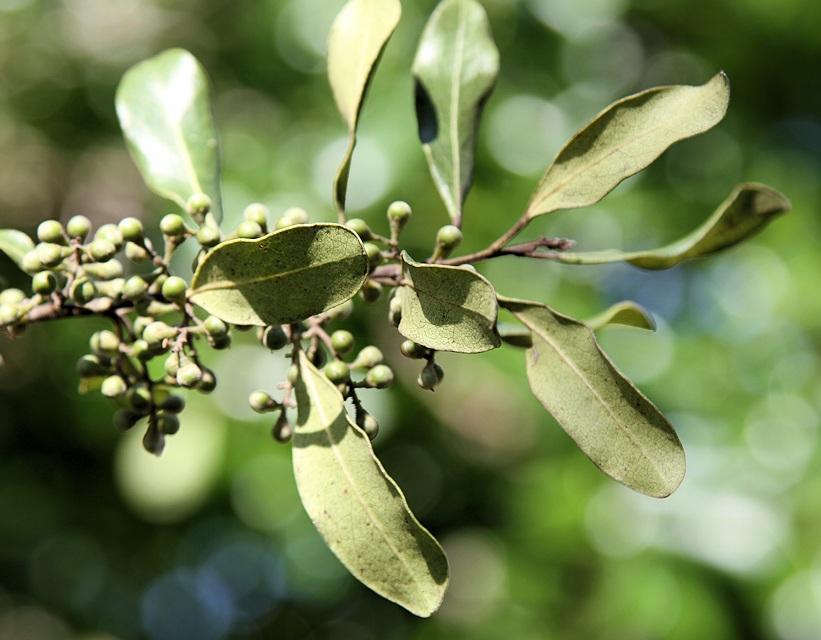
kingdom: Plantae
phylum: Tracheophyta
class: Magnoliopsida
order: Ericales
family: Ebenaceae
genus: Euclea
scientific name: Euclea racemosa
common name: Dune guarri
